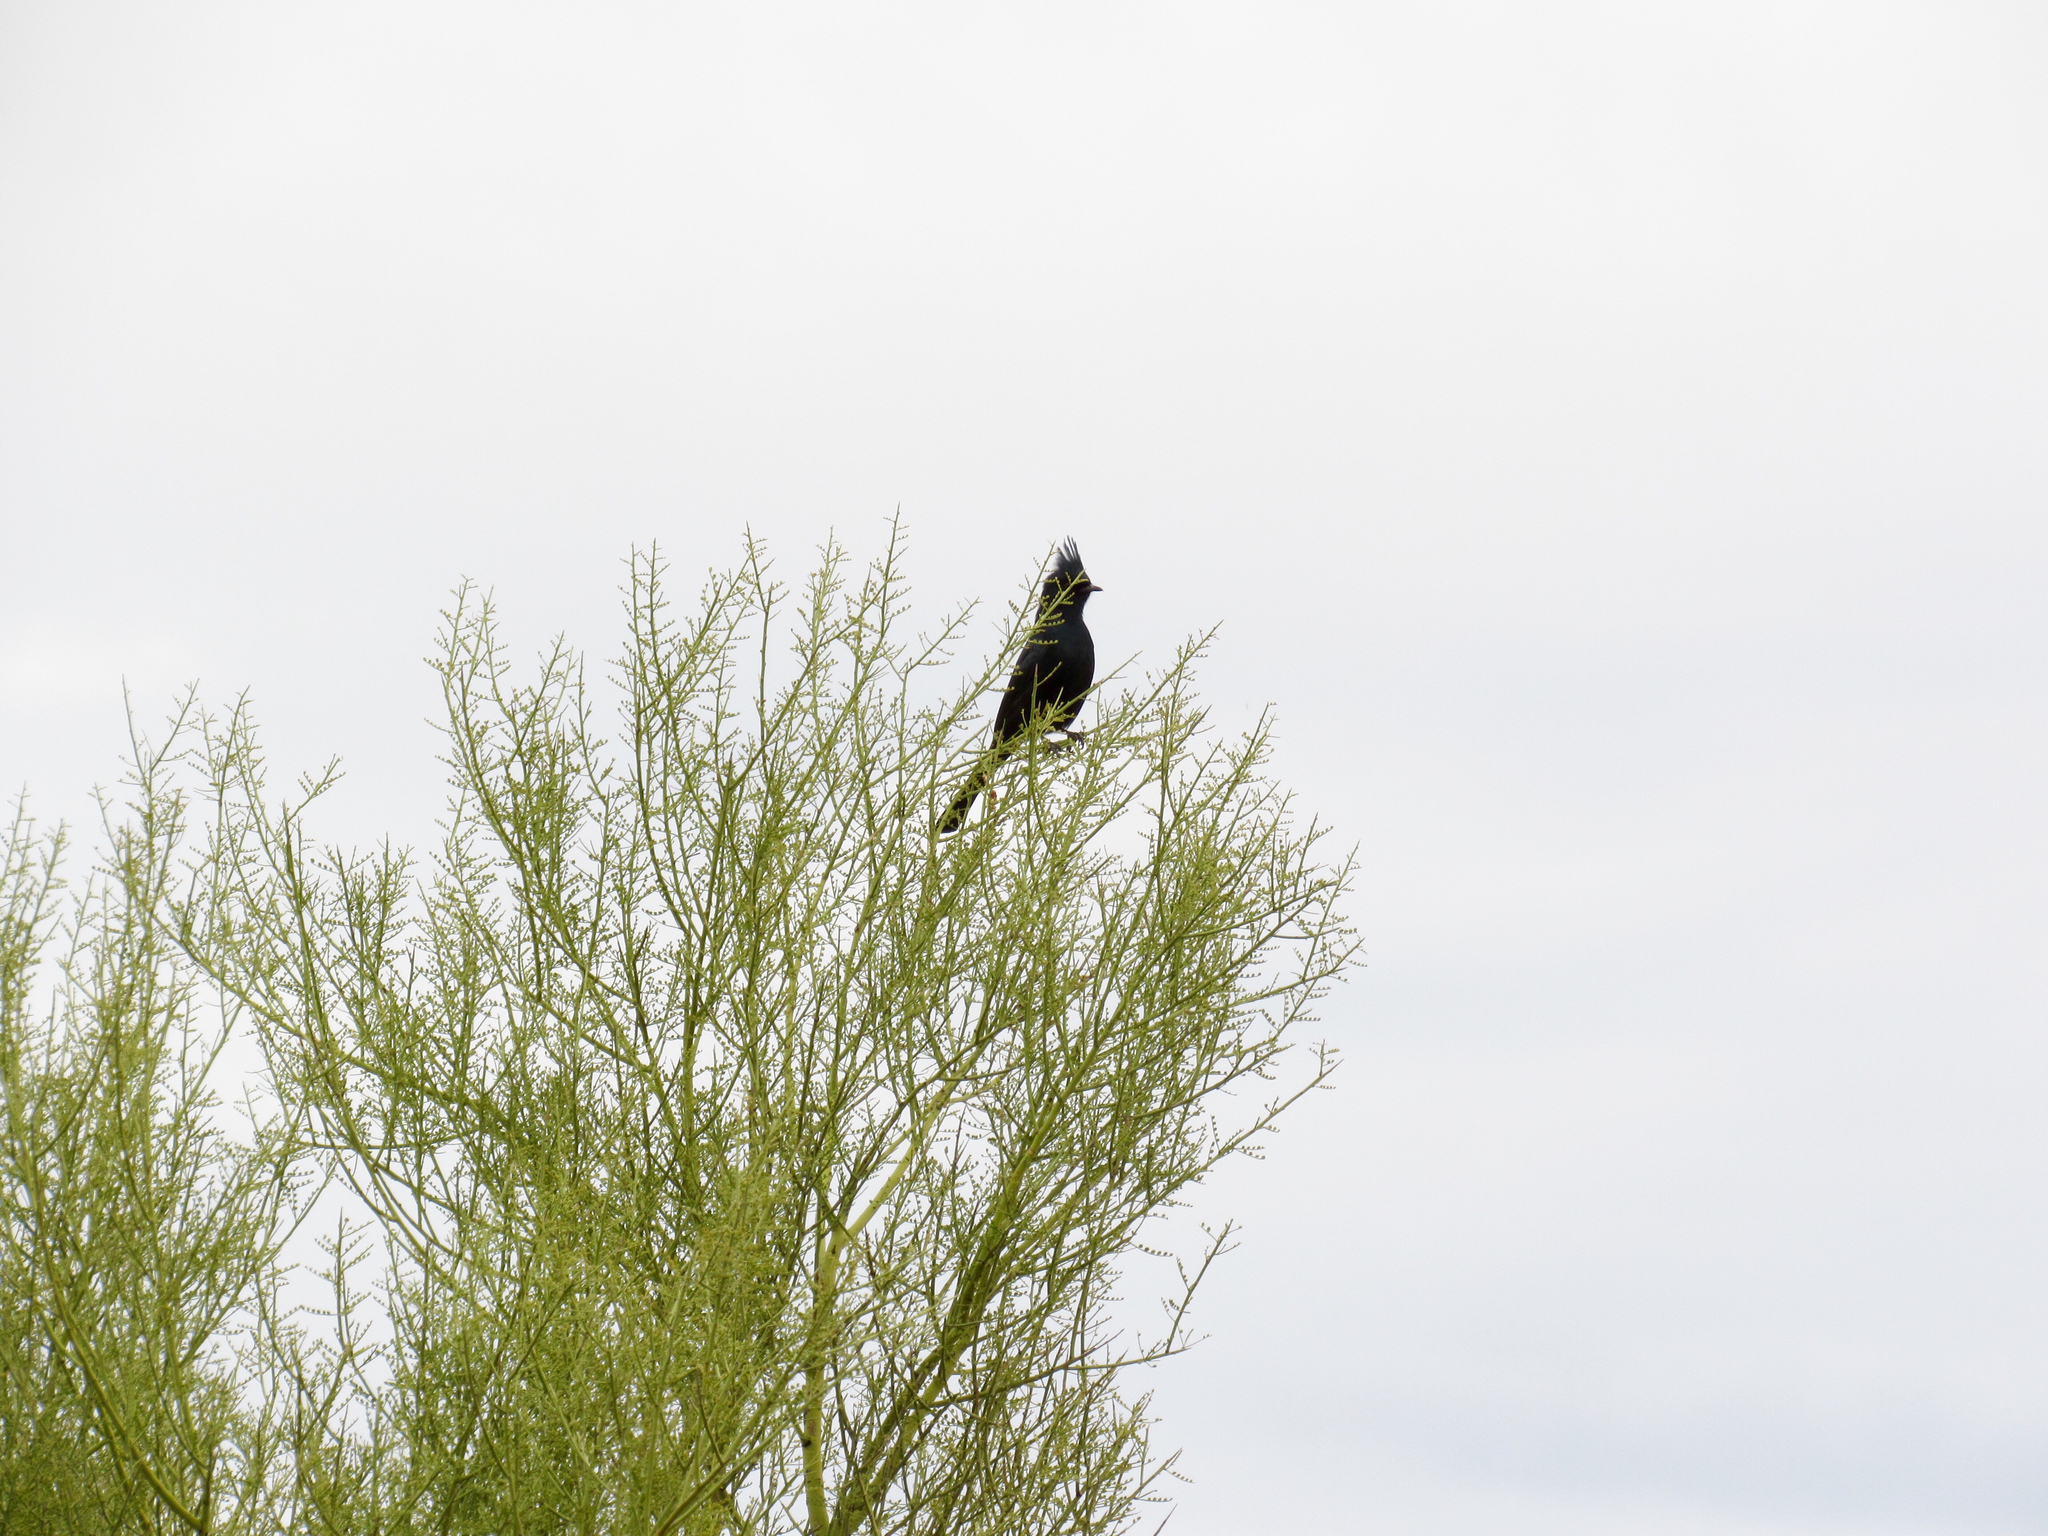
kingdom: Animalia
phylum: Chordata
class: Aves
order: Passeriformes
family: Ptilogonatidae
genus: Phainopepla
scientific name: Phainopepla nitens
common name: Phainopepla
